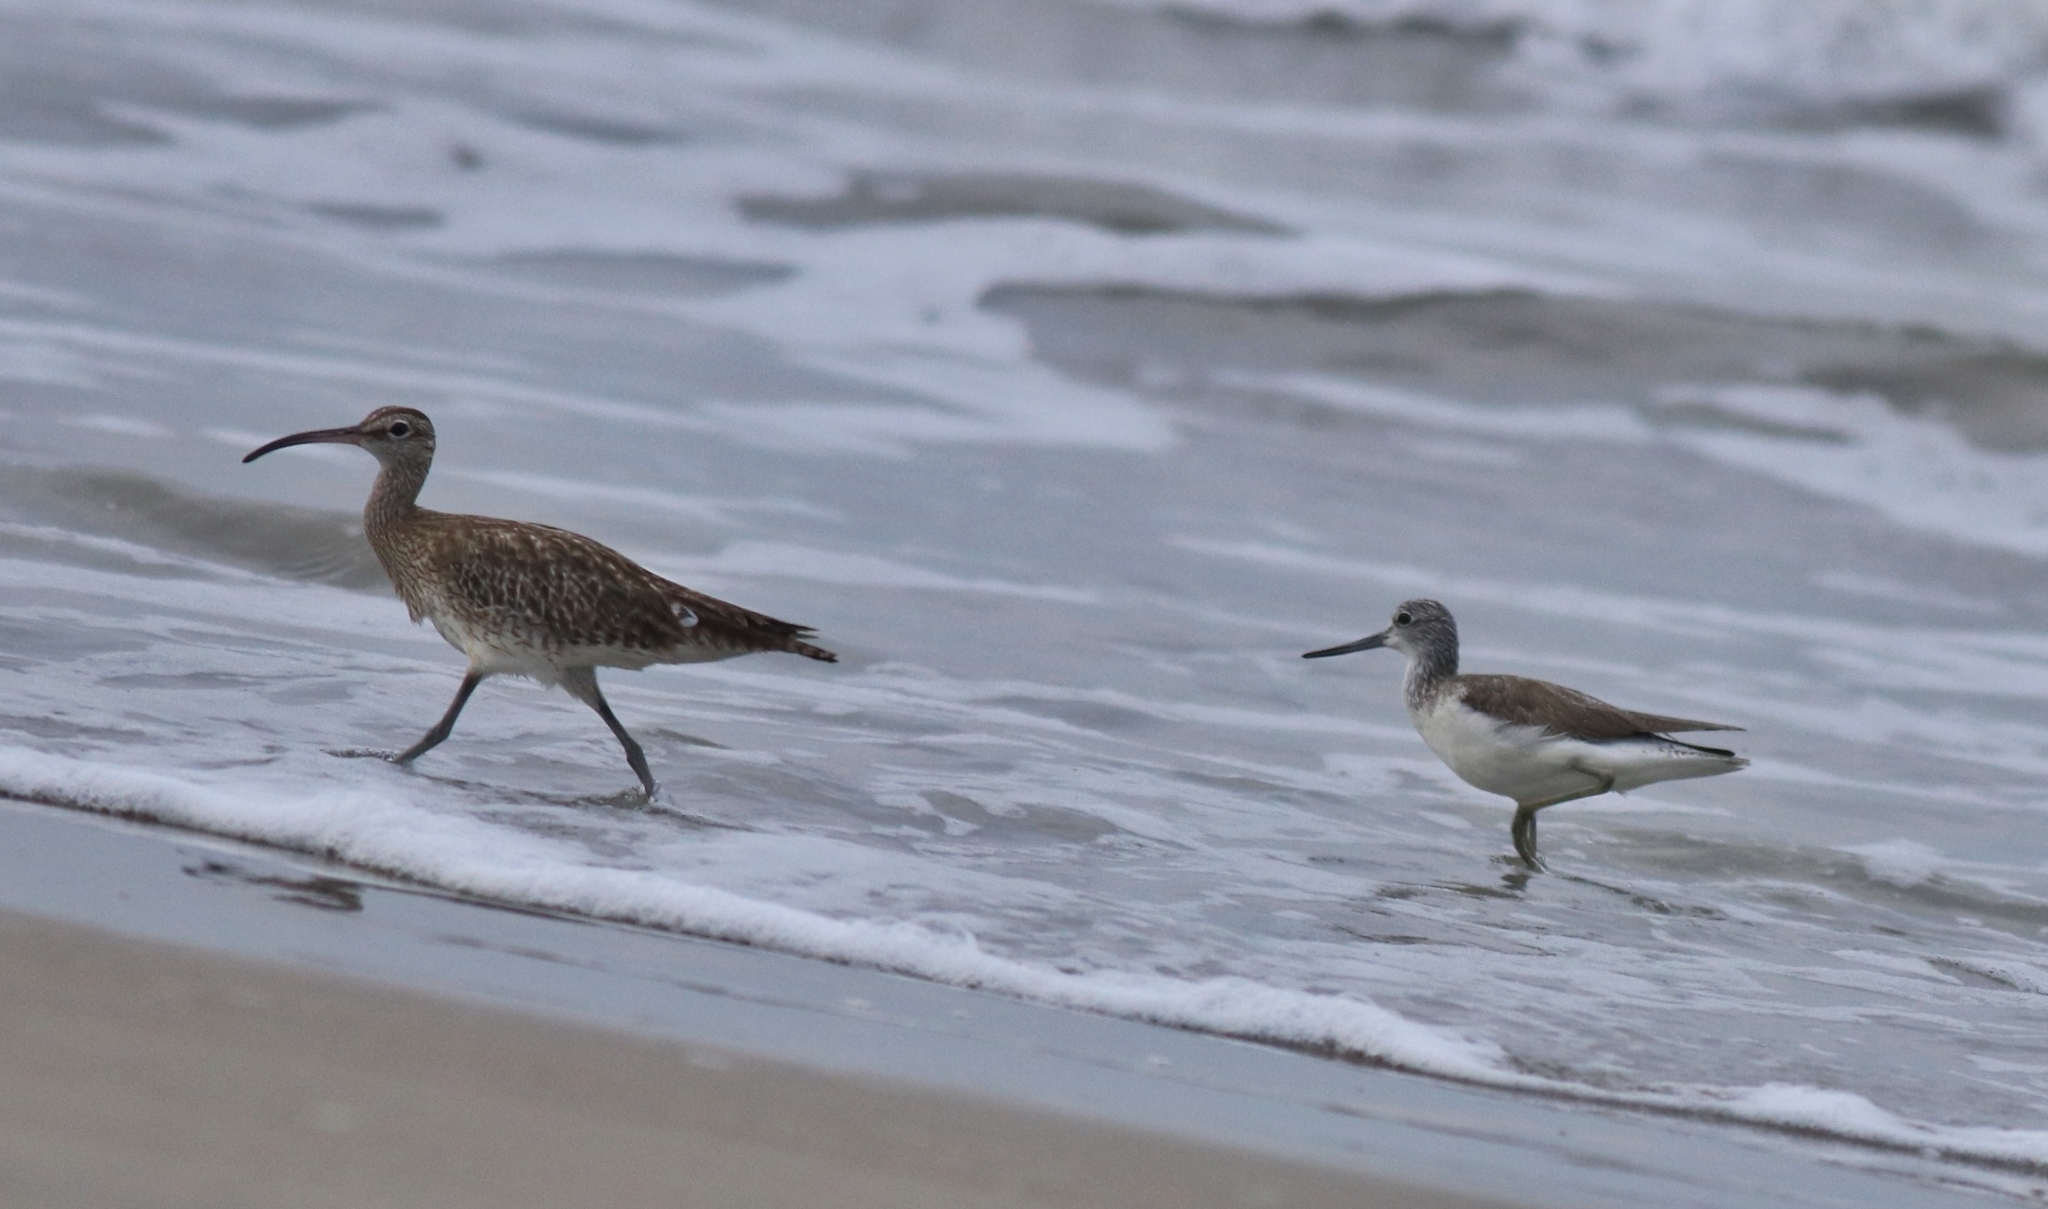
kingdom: Animalia
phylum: Chordata
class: Aves
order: Charadriiformes
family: Scolopacidae
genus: Tringa
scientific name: Tringa nebularia
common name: Common greenshank
